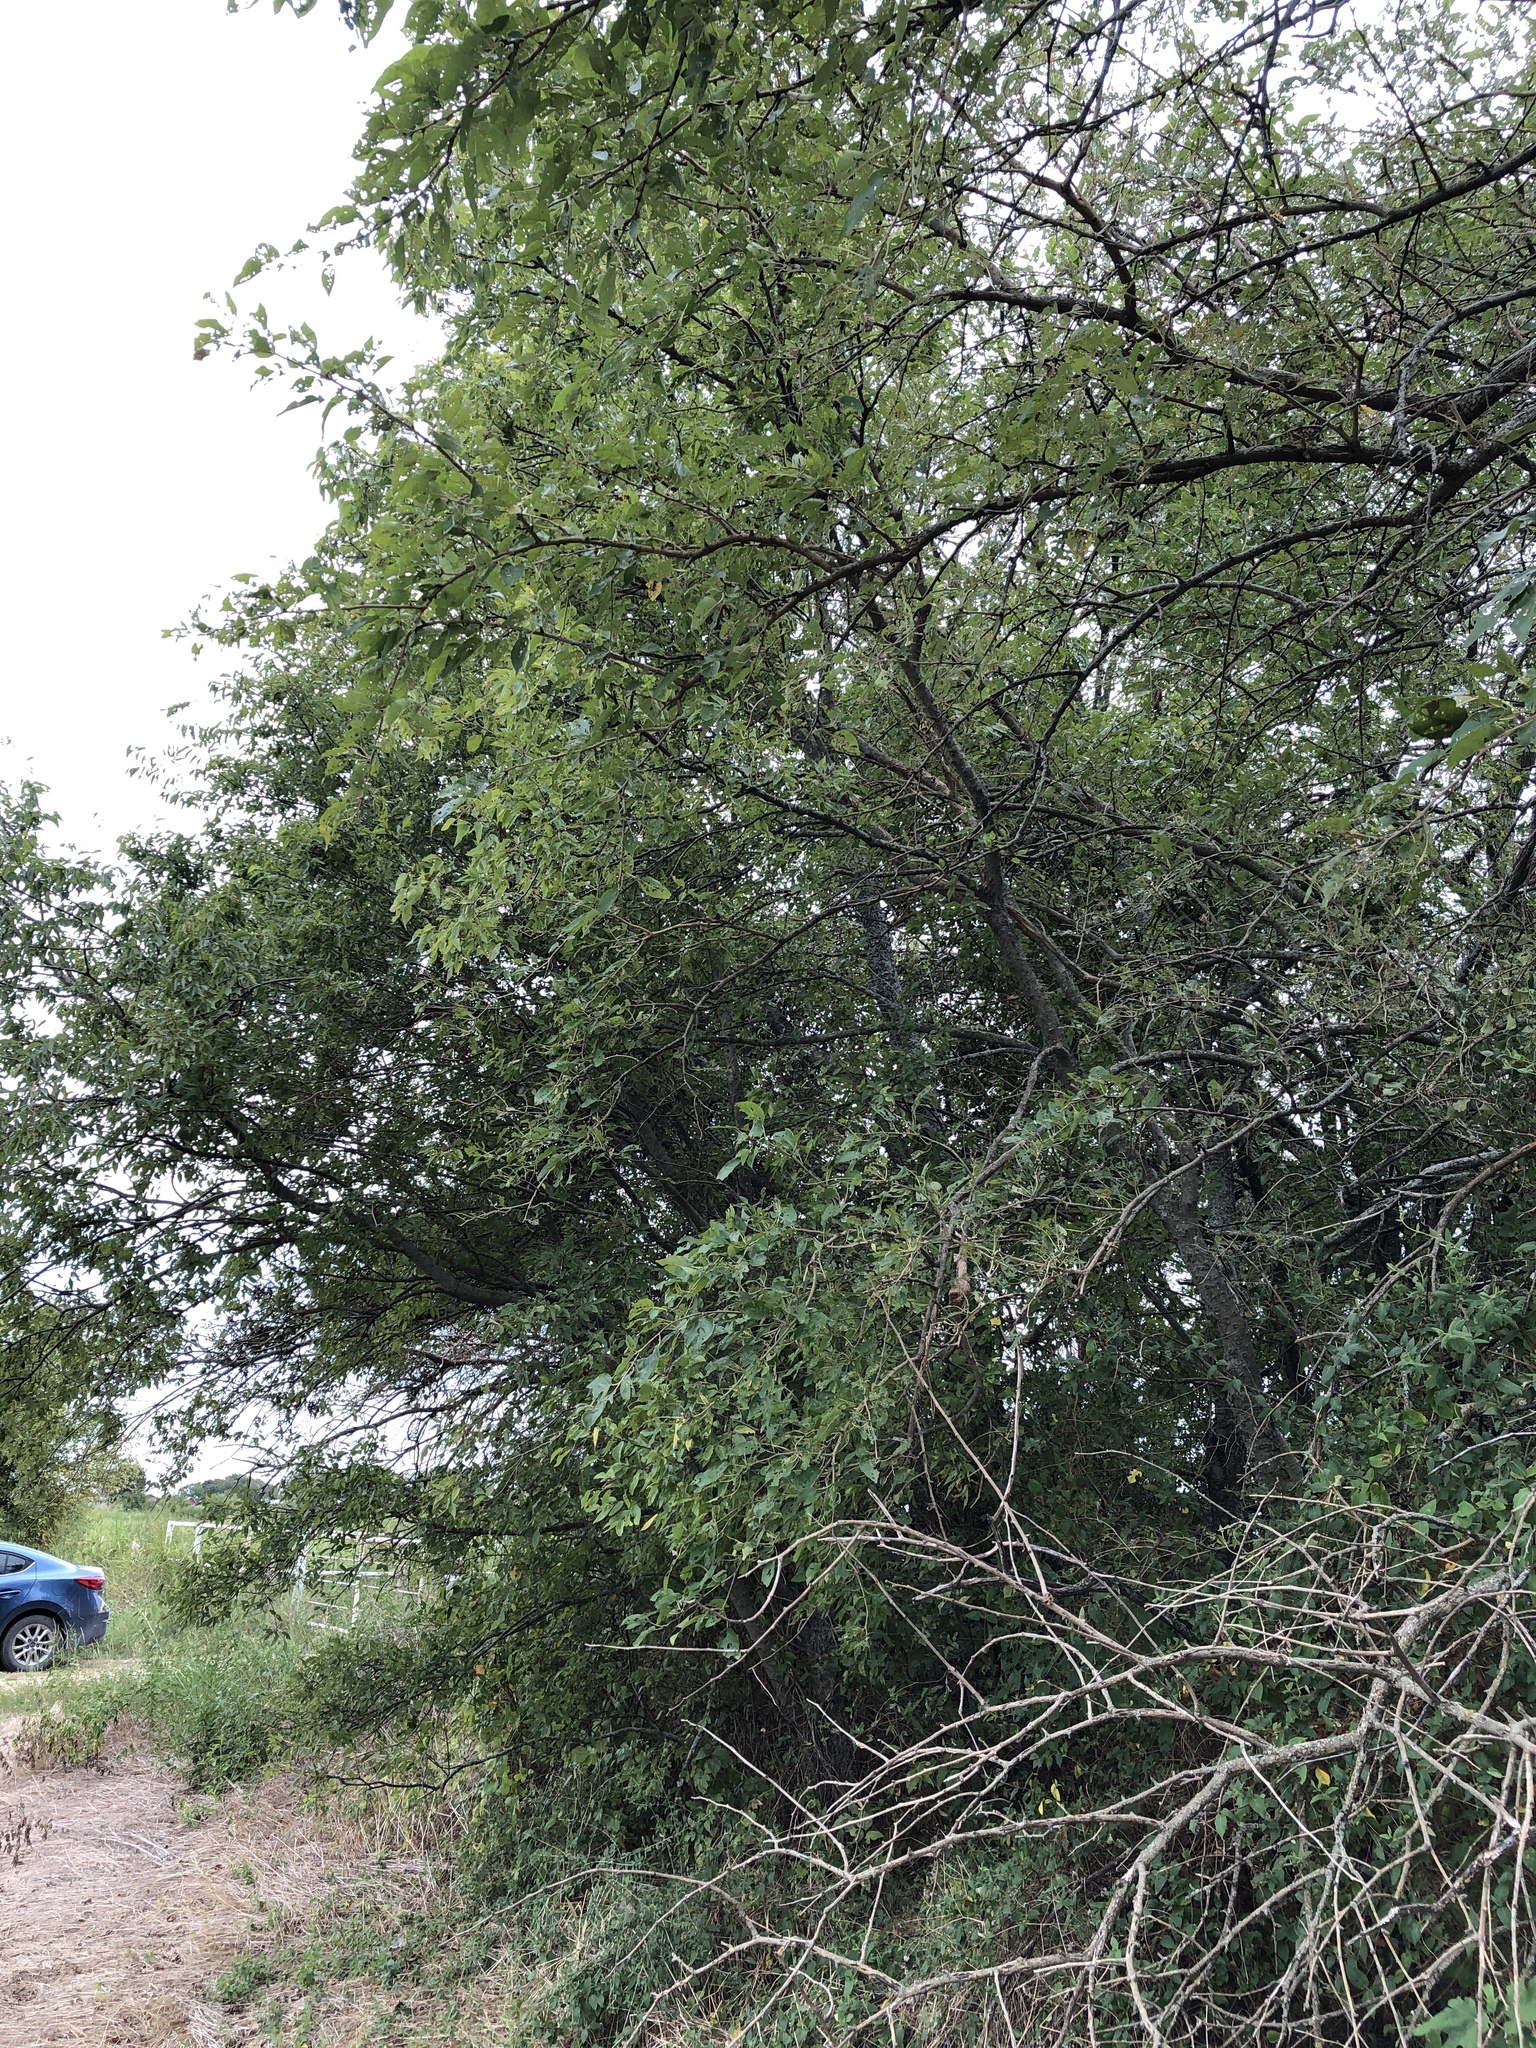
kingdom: Plantae
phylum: Tracheophyta
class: Magnoliopsida
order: Rosales
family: Cannabaceae
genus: Celtis
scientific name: Celtis laevigata
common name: Sugarberry
